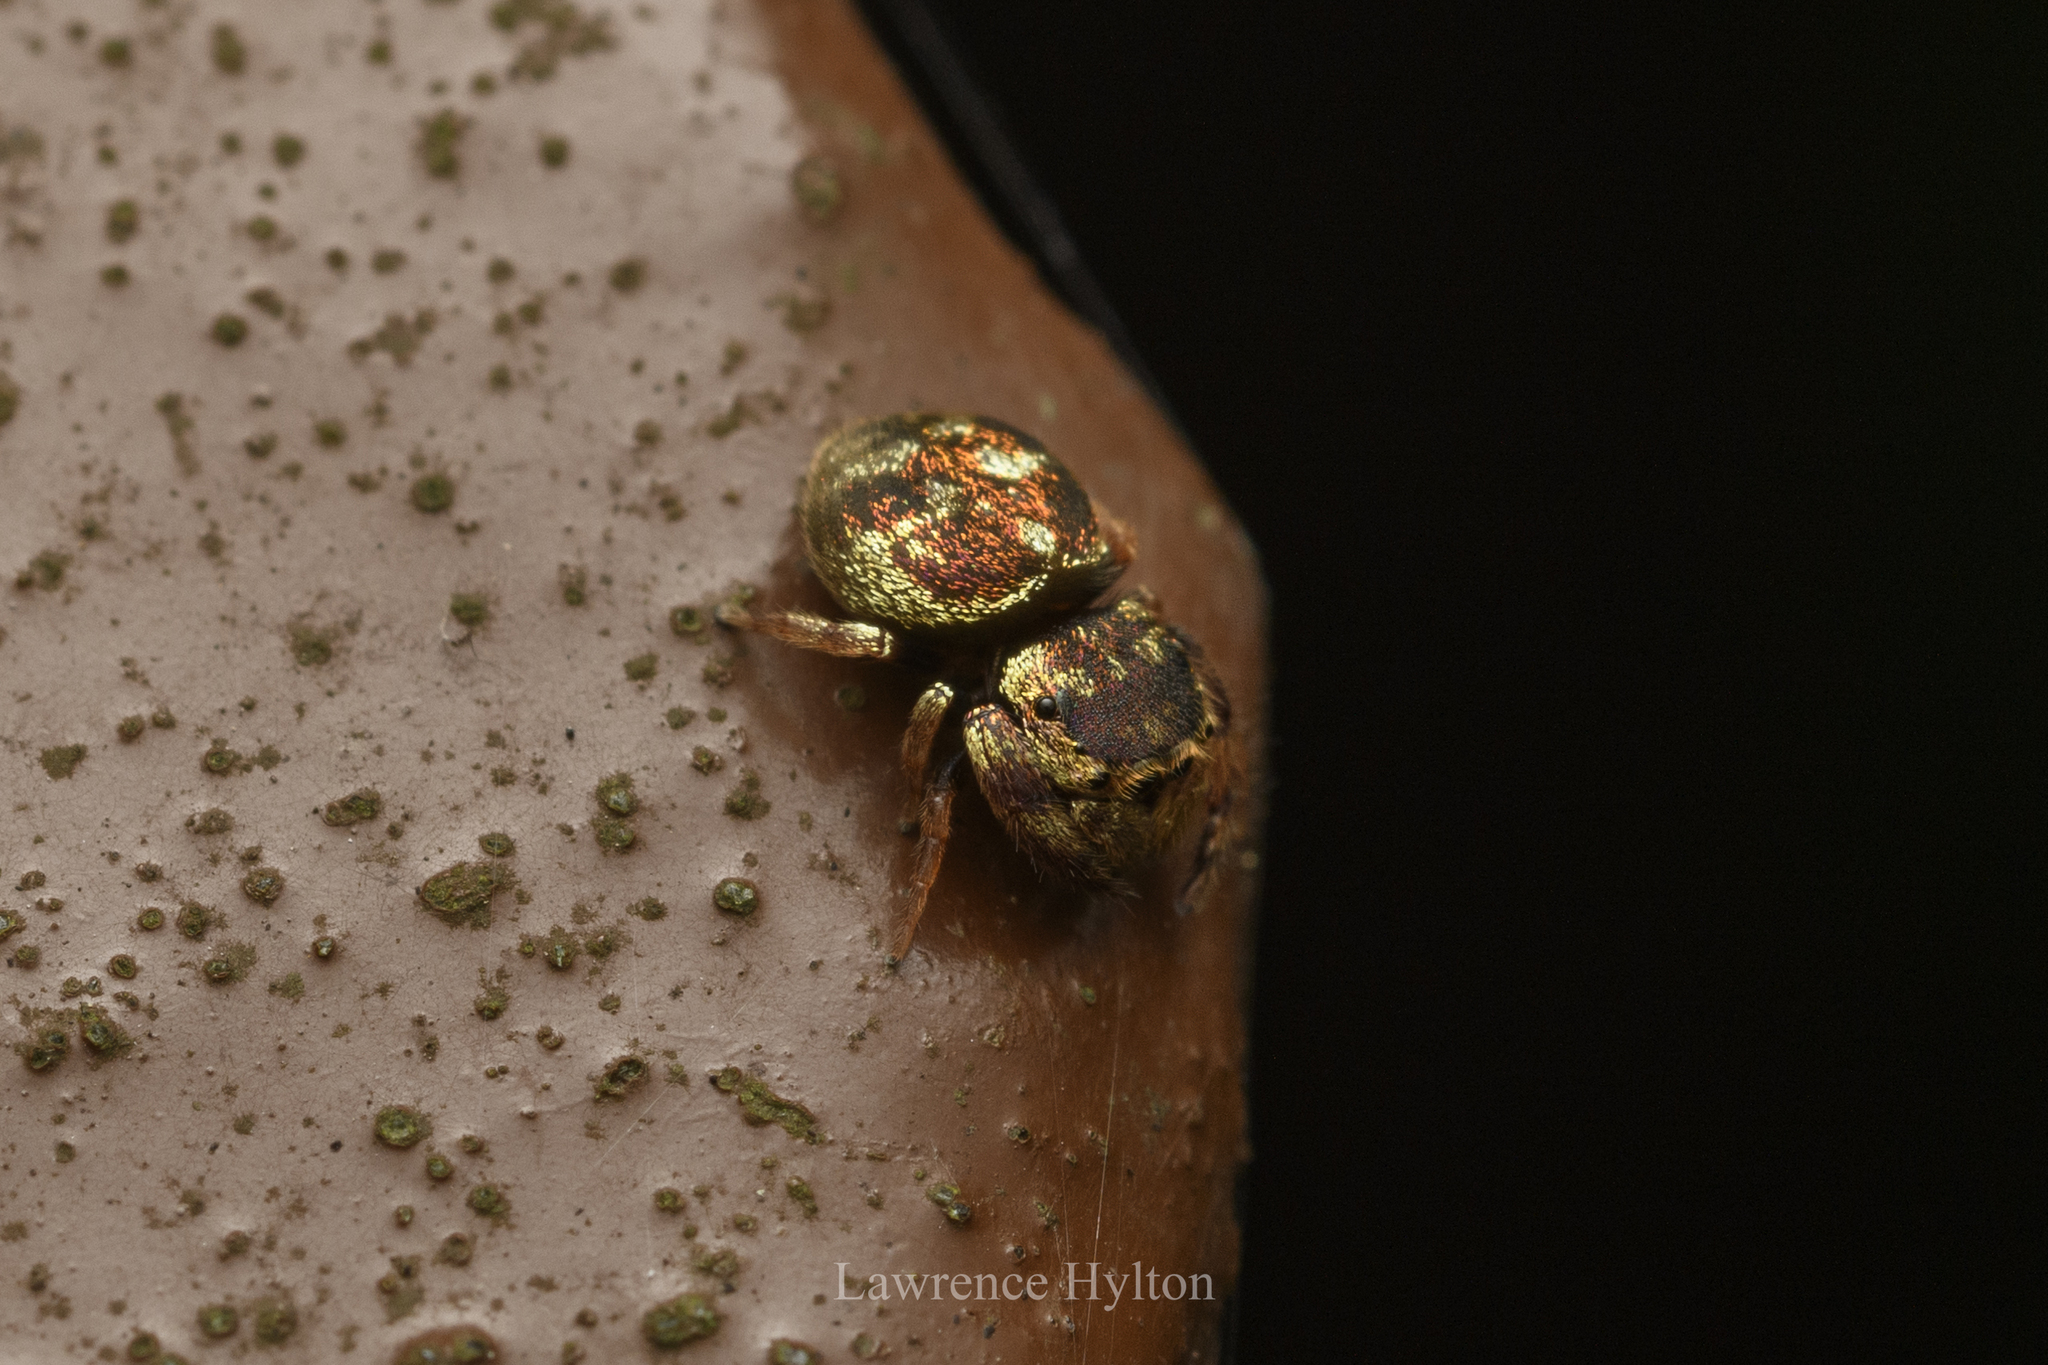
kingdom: Animalia
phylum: Arthropoda
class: Arachnida
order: Araneae
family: Salticidae
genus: Irura
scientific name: Irura bidenticulata
